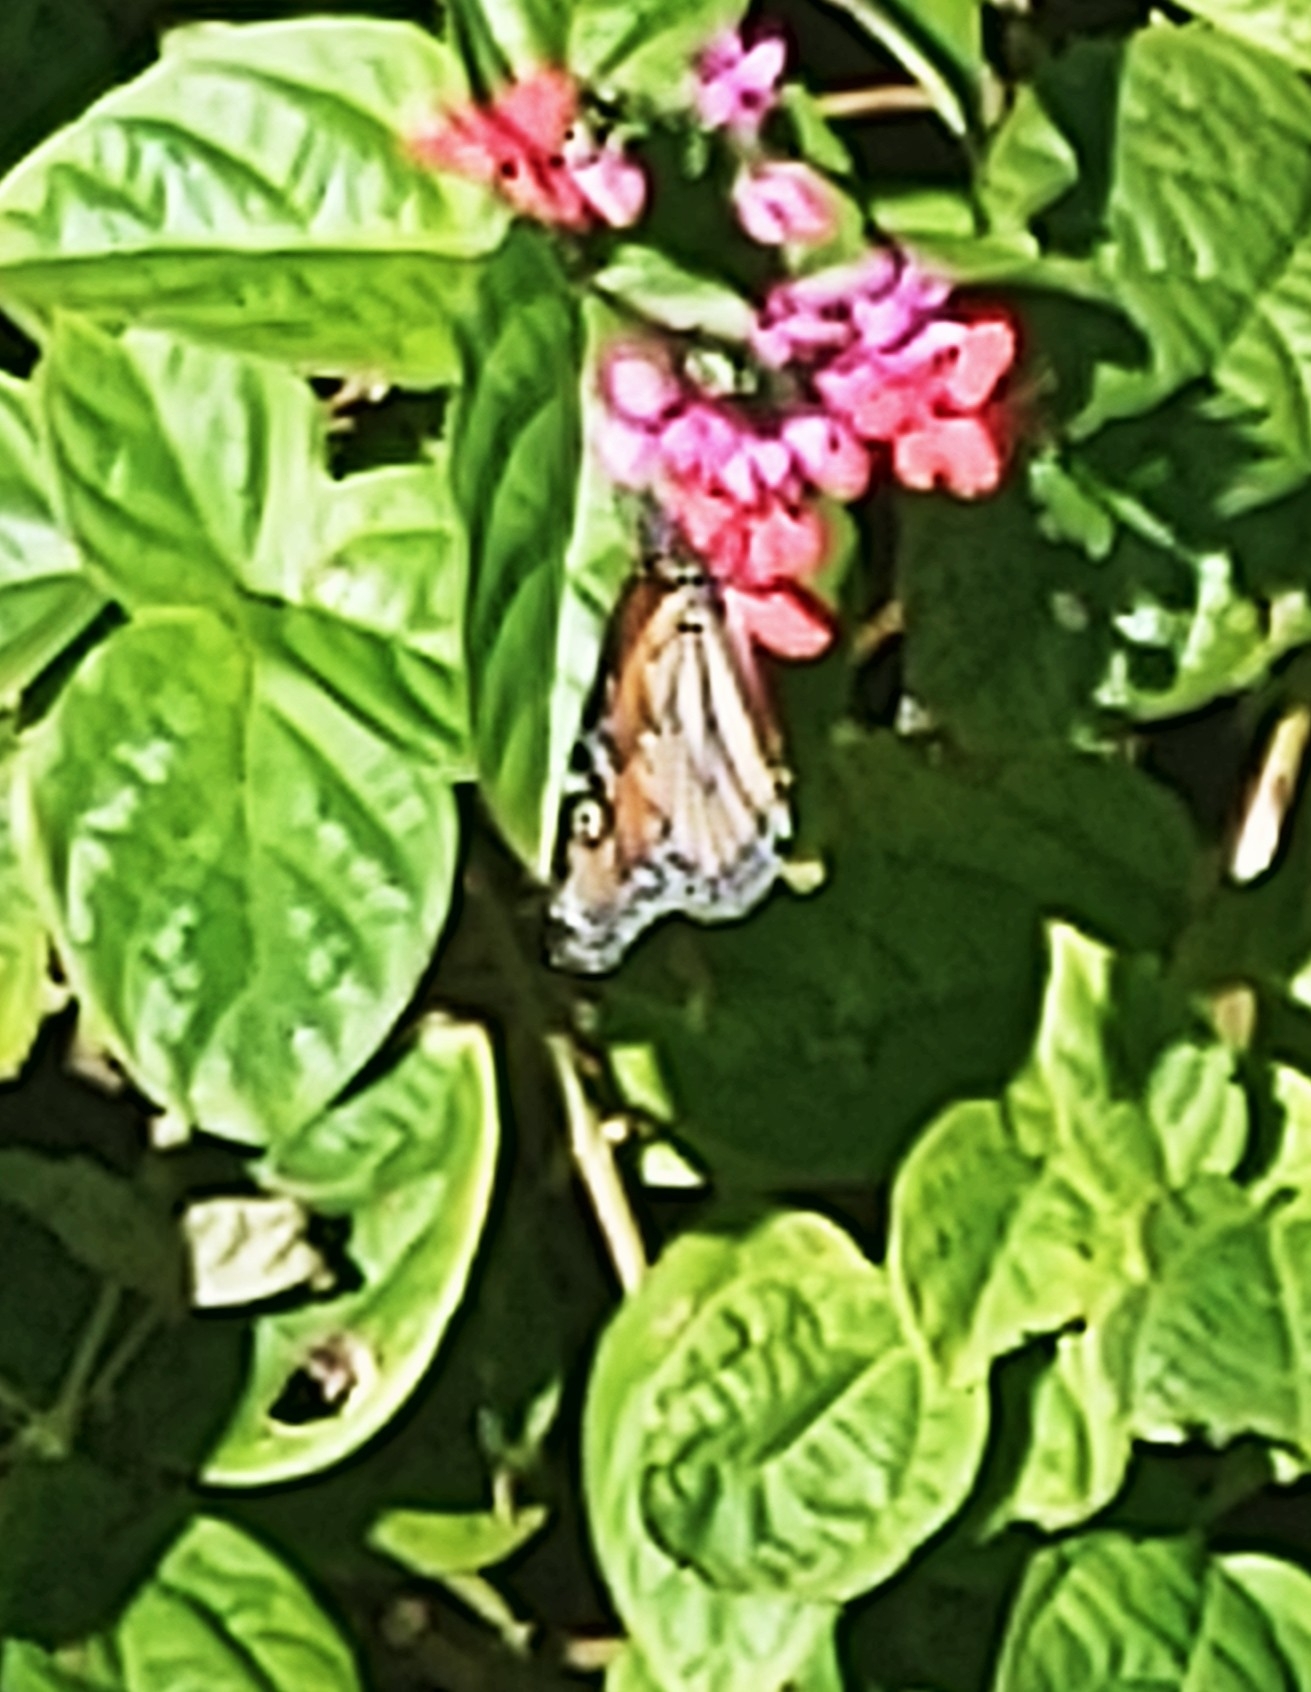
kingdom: Animalia
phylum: Arthropoda
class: Insecta
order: Lepidoptera
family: Nymphalidae
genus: Danaus
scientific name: Danaus plexippus
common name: Monarch
